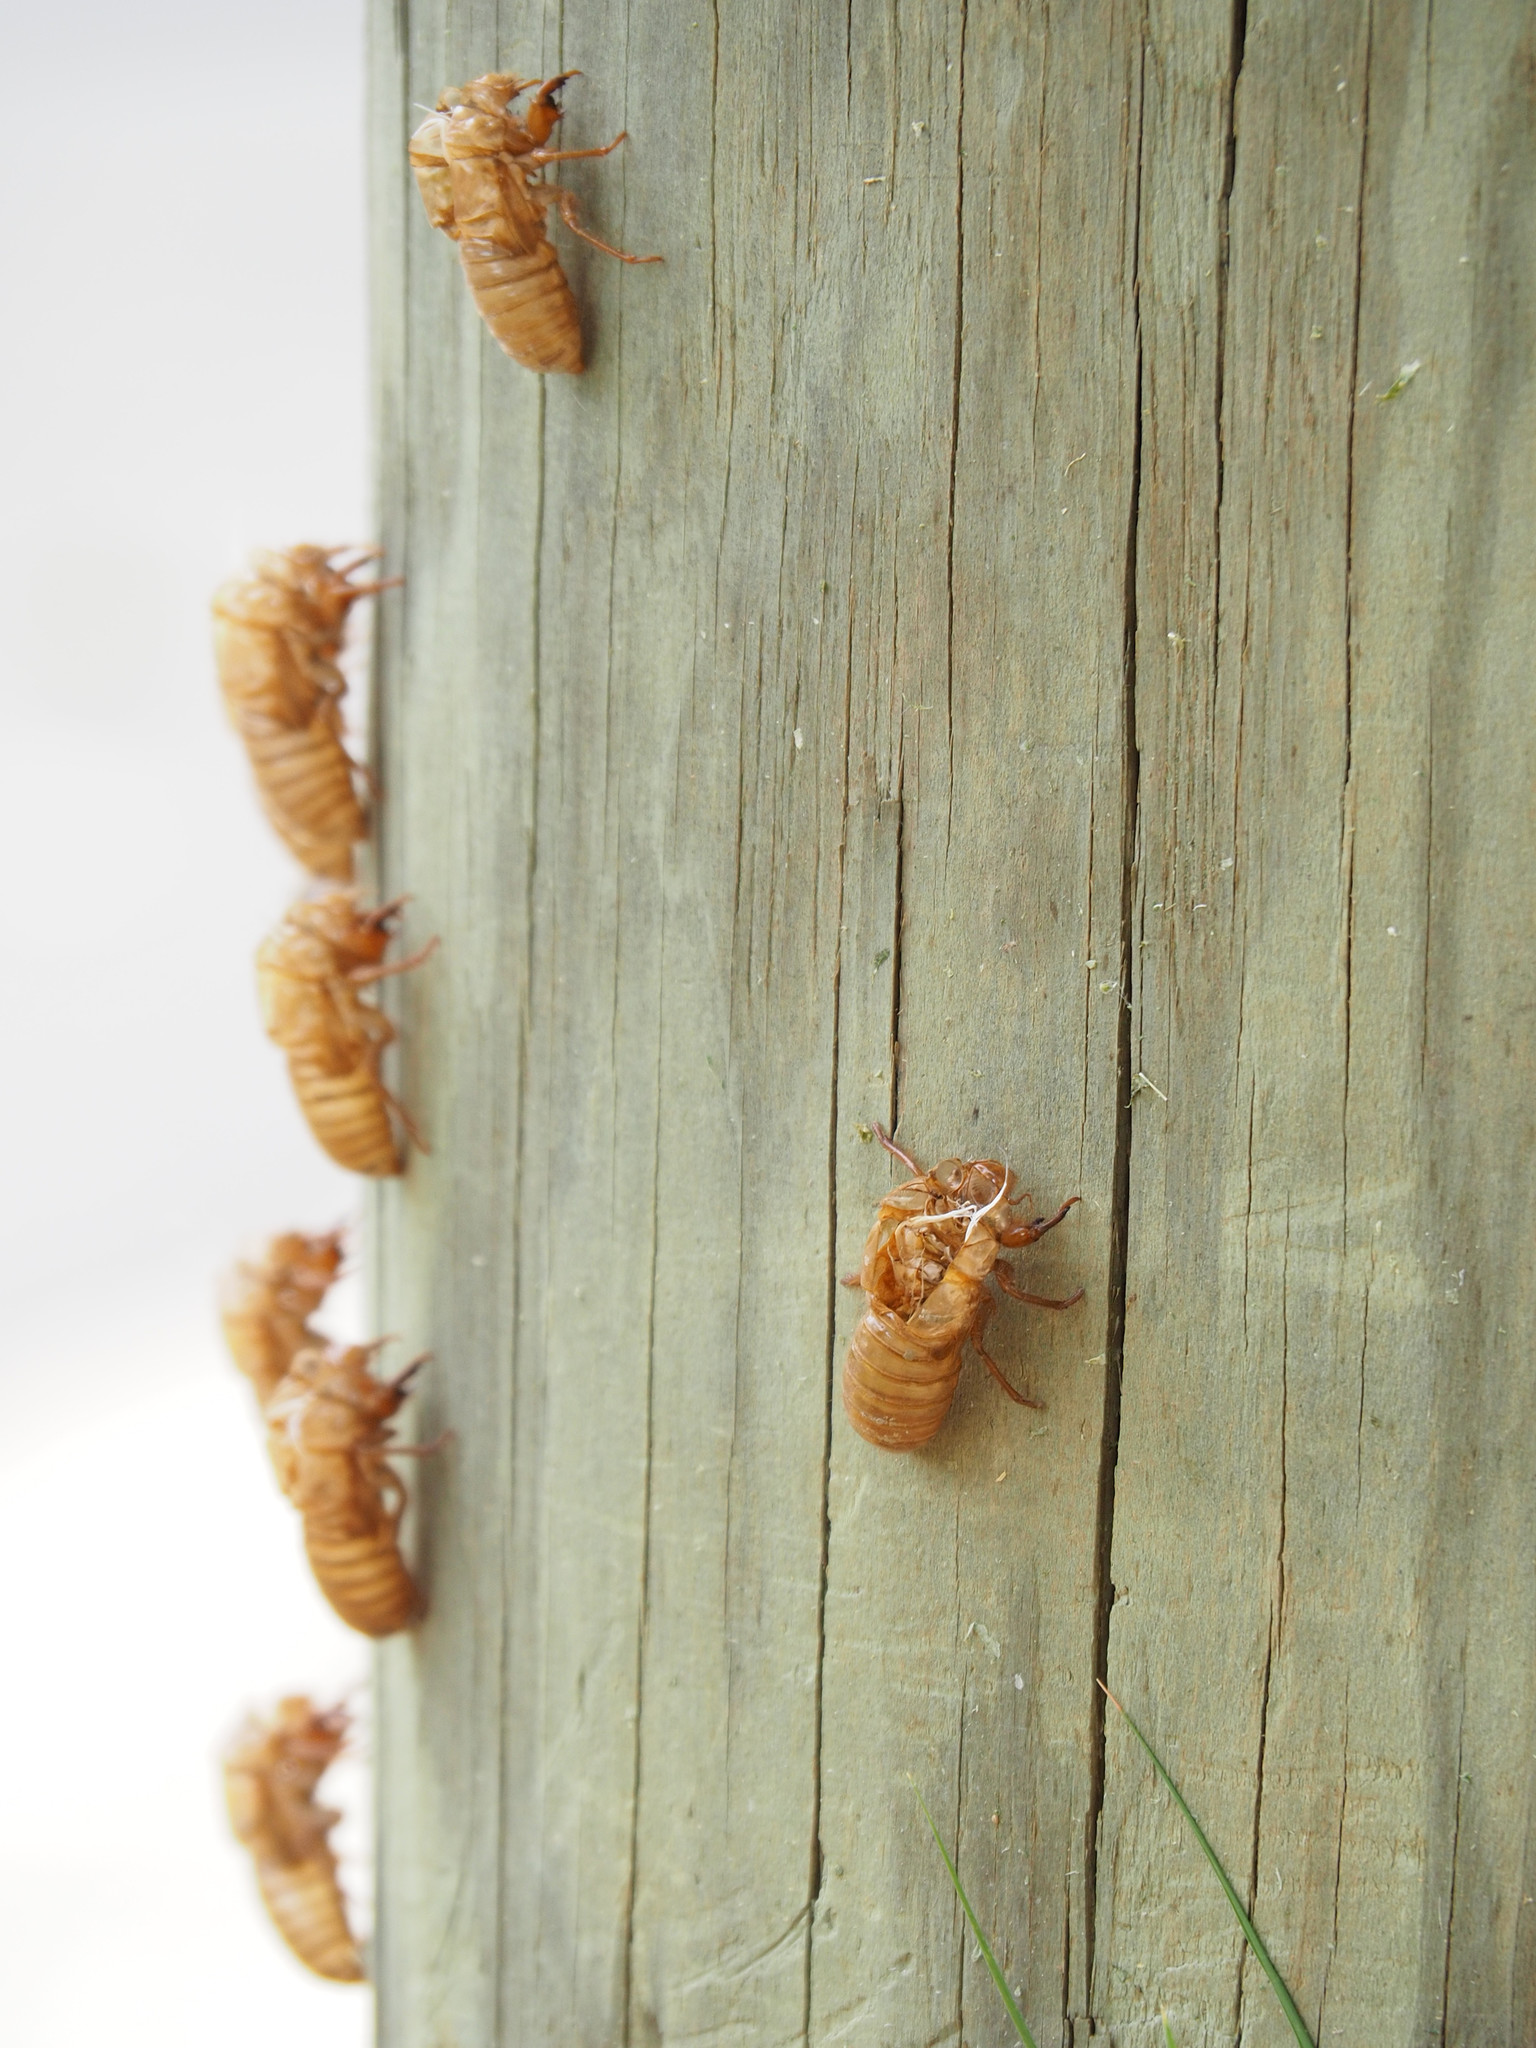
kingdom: Animalia
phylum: Arthropoda
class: Insecta
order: Hemiptera
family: Cicadidae
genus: Magicicada
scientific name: Magicicada
